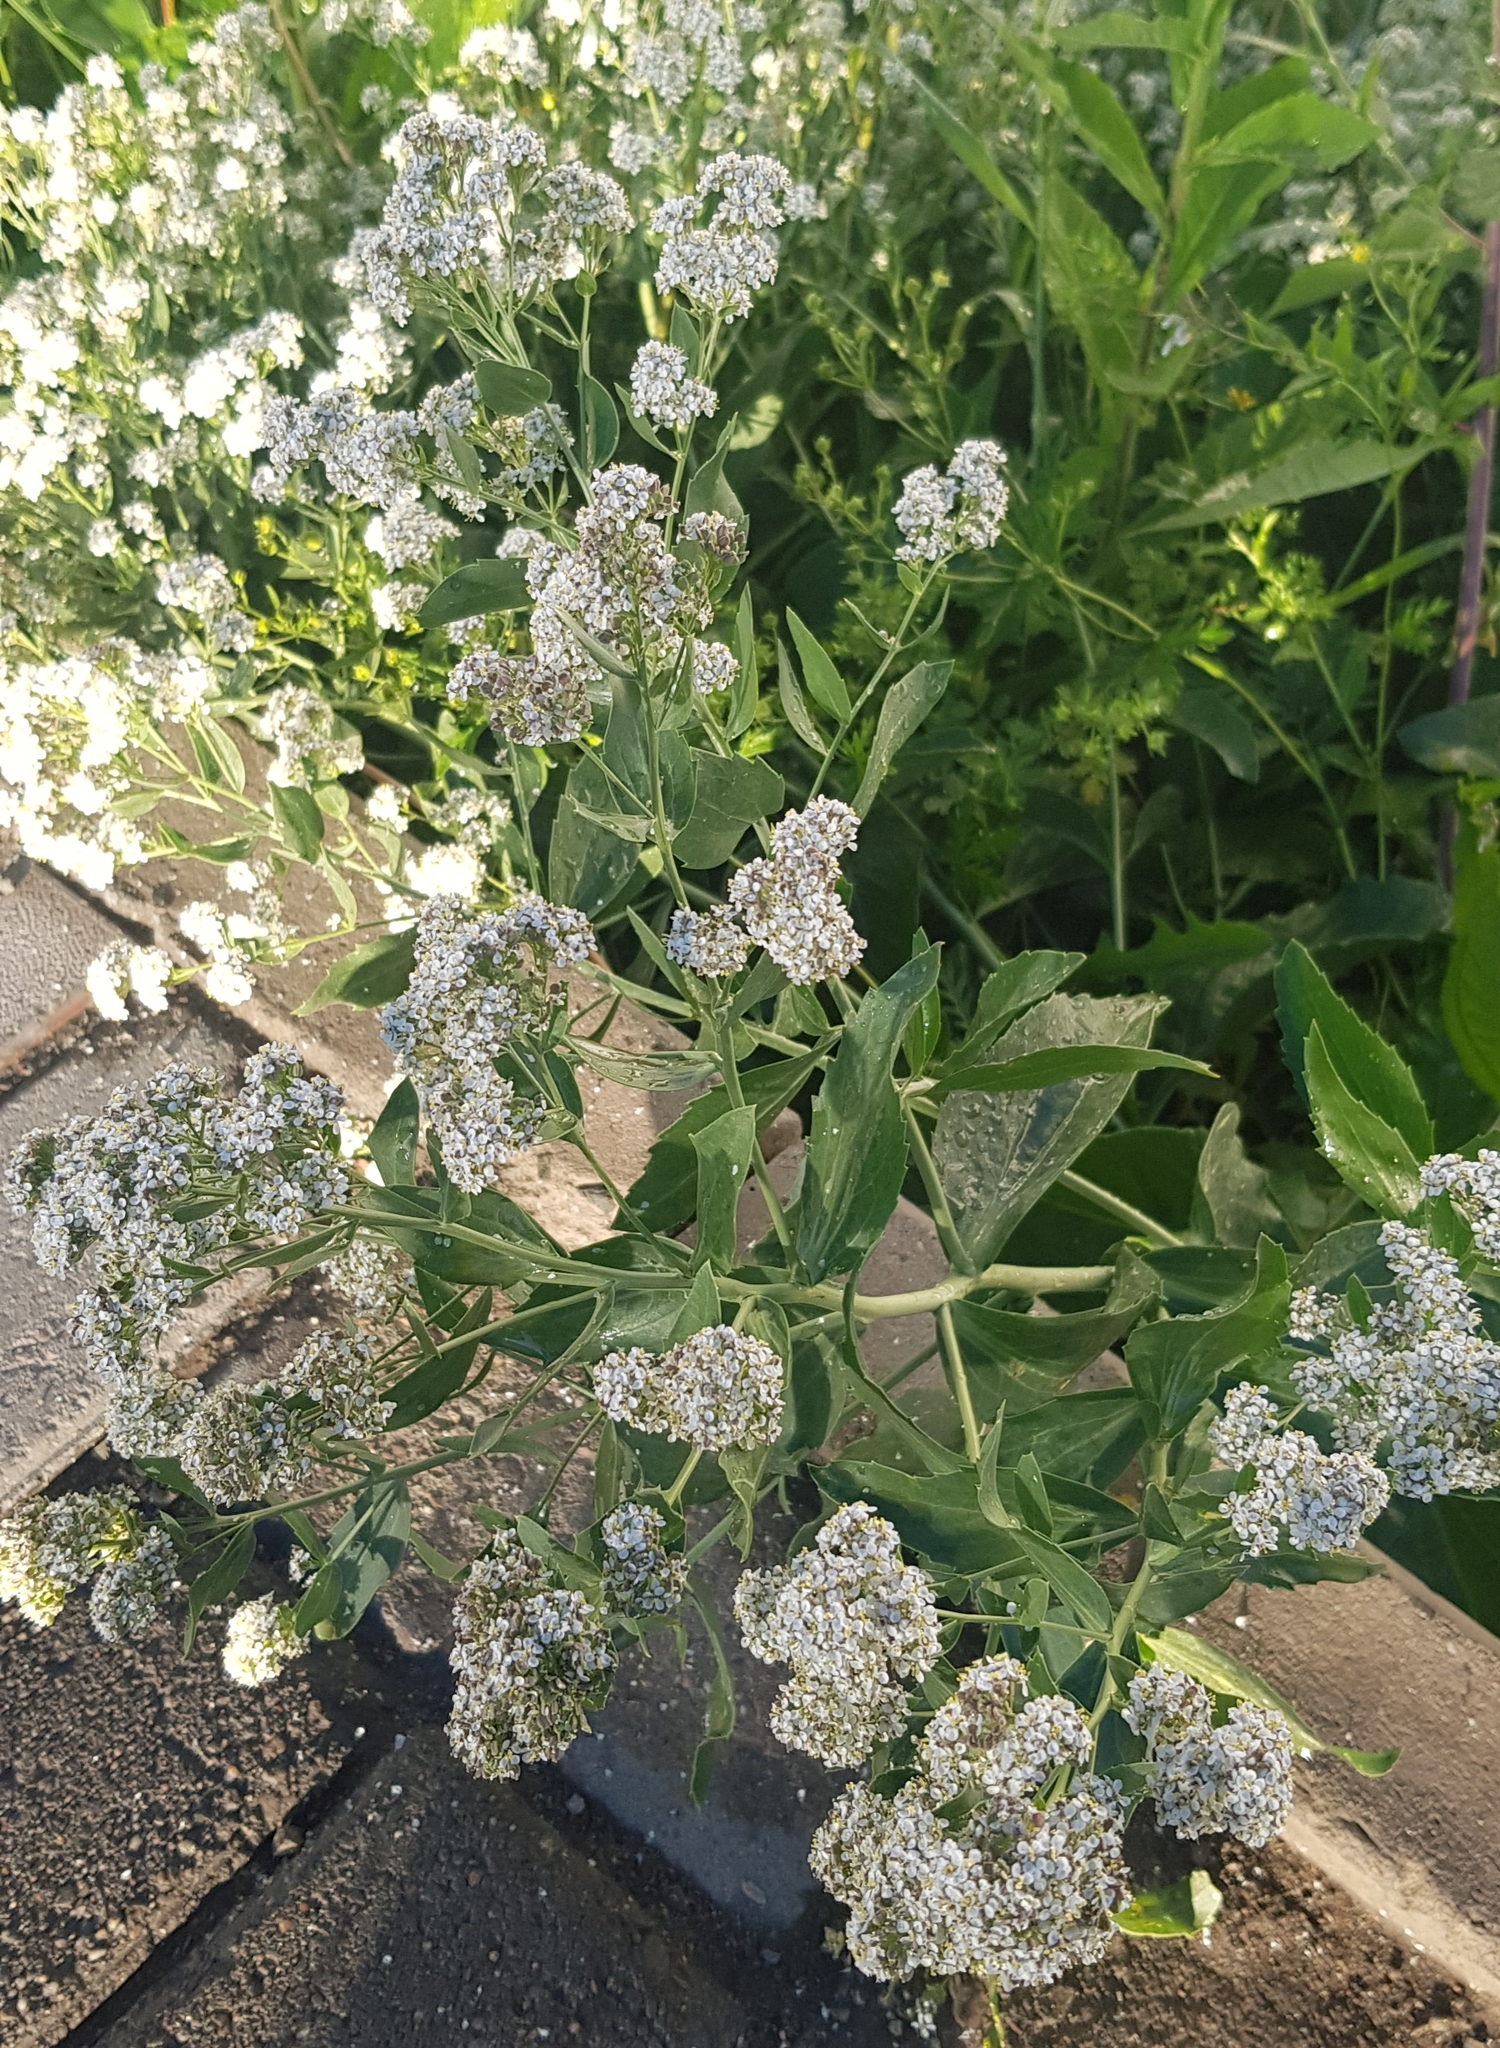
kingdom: Plantae
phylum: Tracheophyta
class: Magnoliopsida
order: Brassicales
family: Brassicaceae
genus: Lepidium
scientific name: Lepidium latifolium
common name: Dittander
